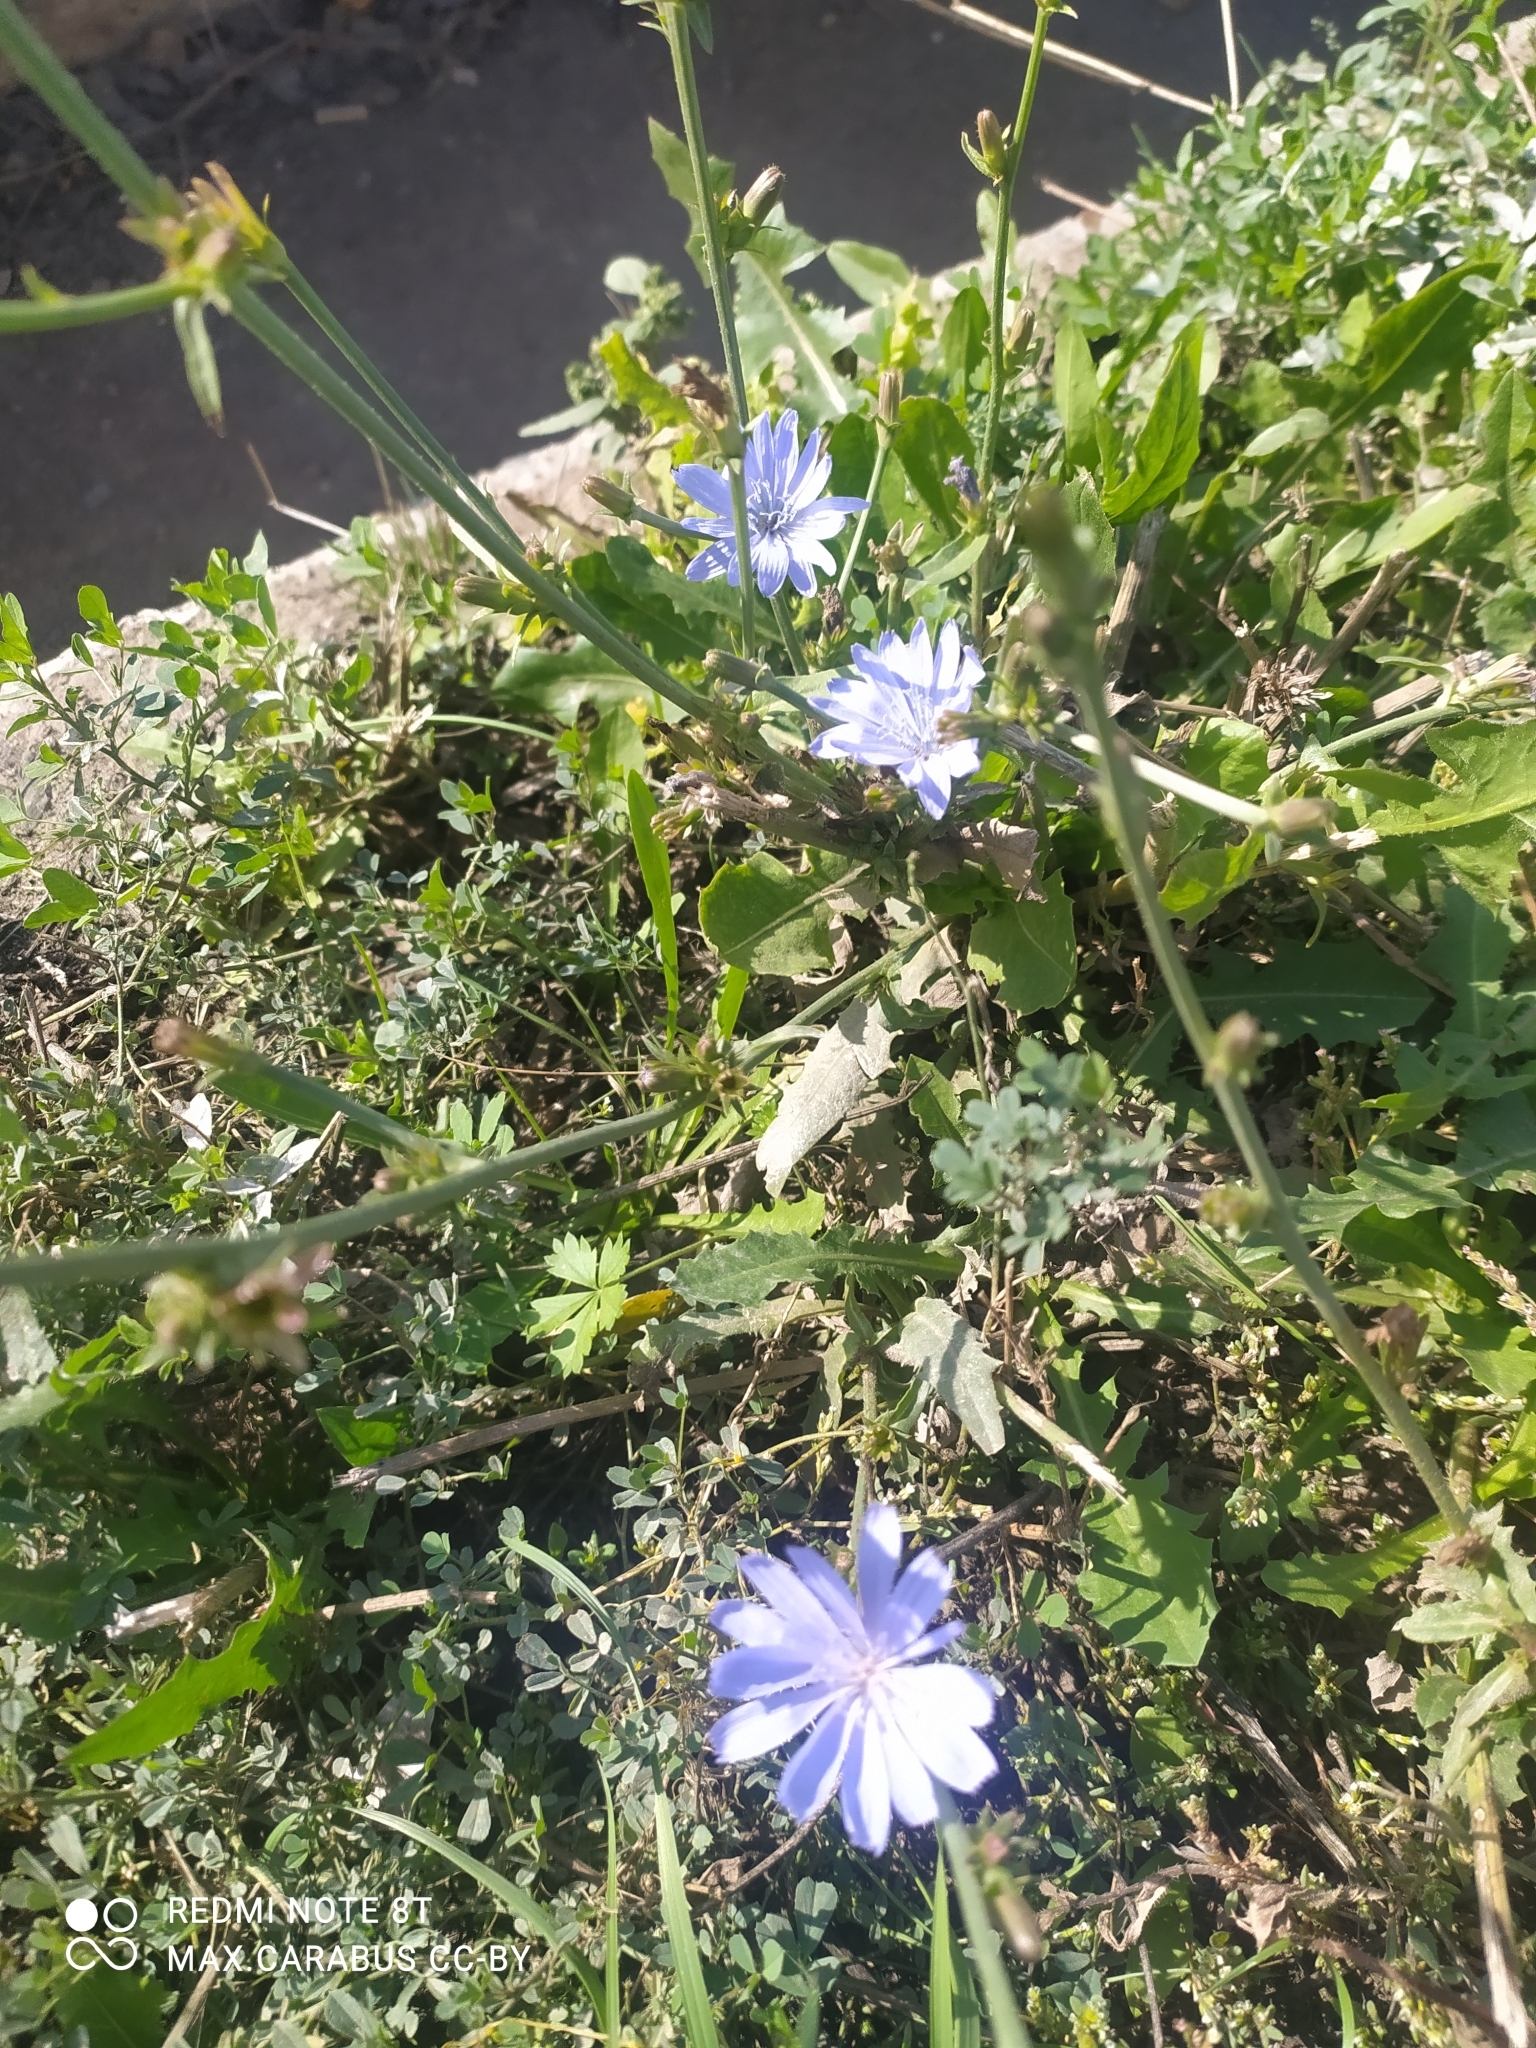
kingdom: Plantae
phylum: Tracheophyta
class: Magnoliopsida
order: Asterales
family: Asteraceae
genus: Cichorium
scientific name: Cichorium intybus
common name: Chicory
